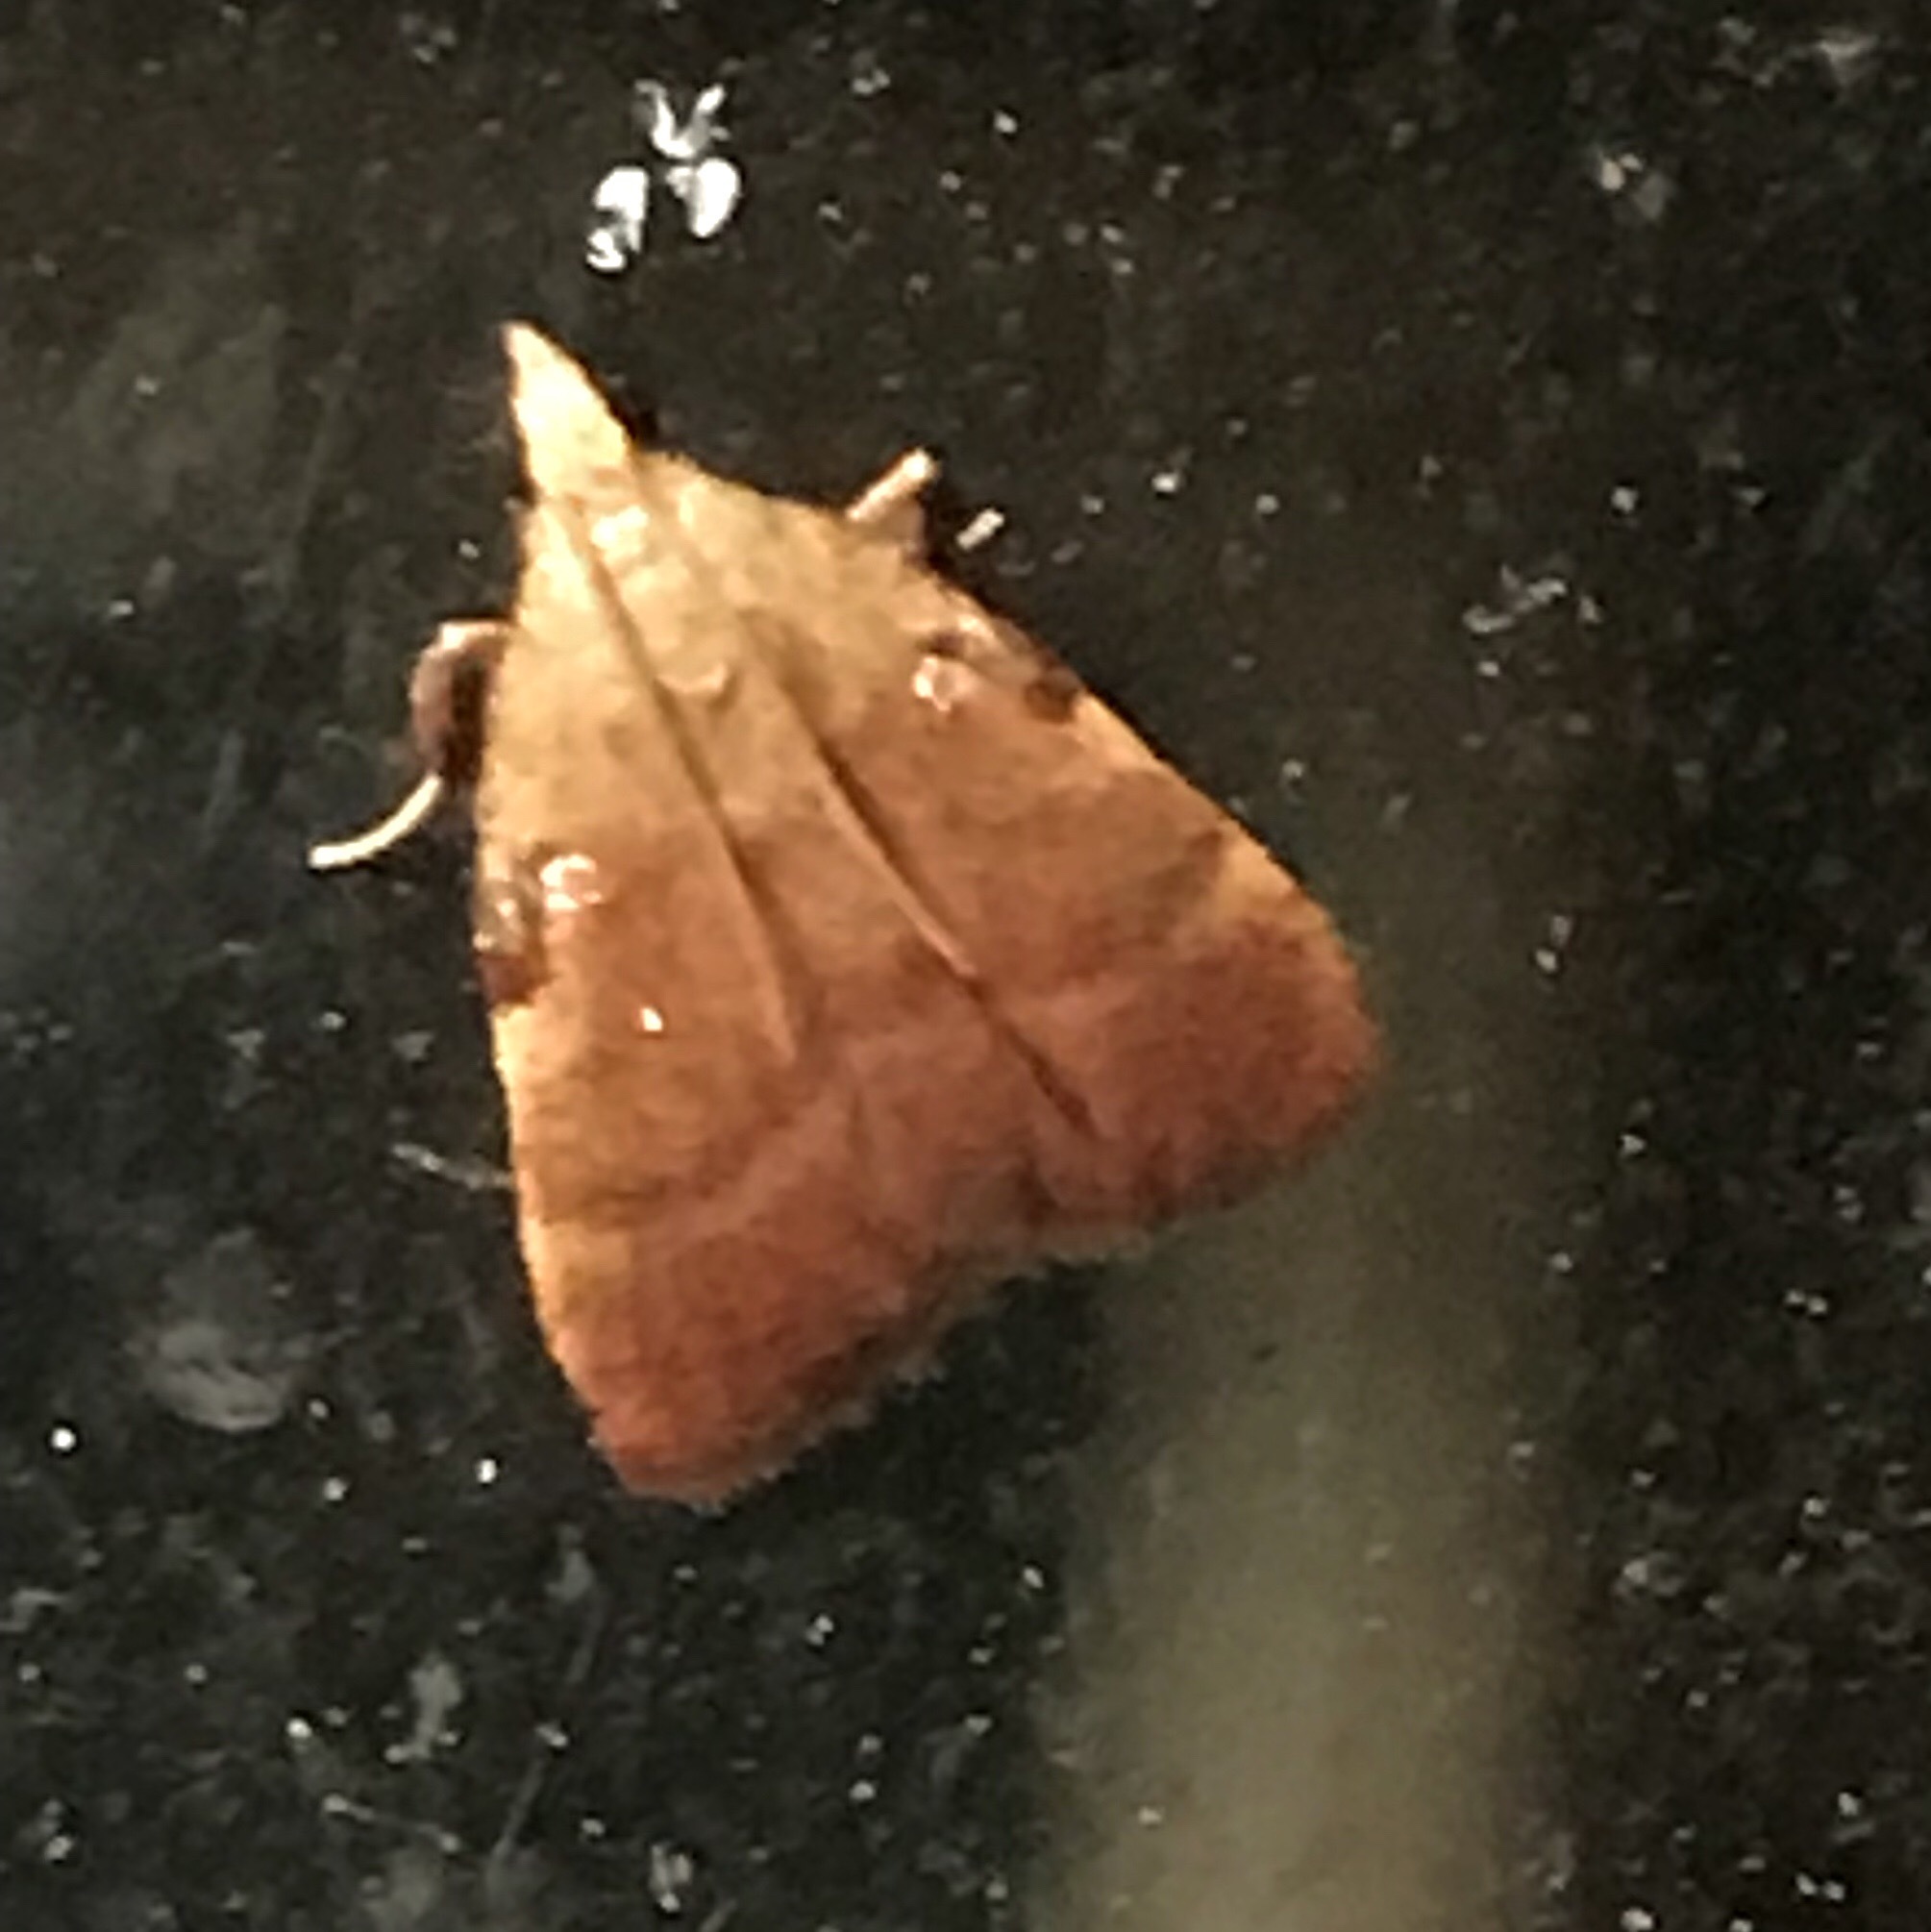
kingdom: Animalia
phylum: Arthropoda
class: Insecta
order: Lepidoptera
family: Pyralidae
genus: Condylolomia
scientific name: Condylolomia participialis
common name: Drab condylolomia moth
